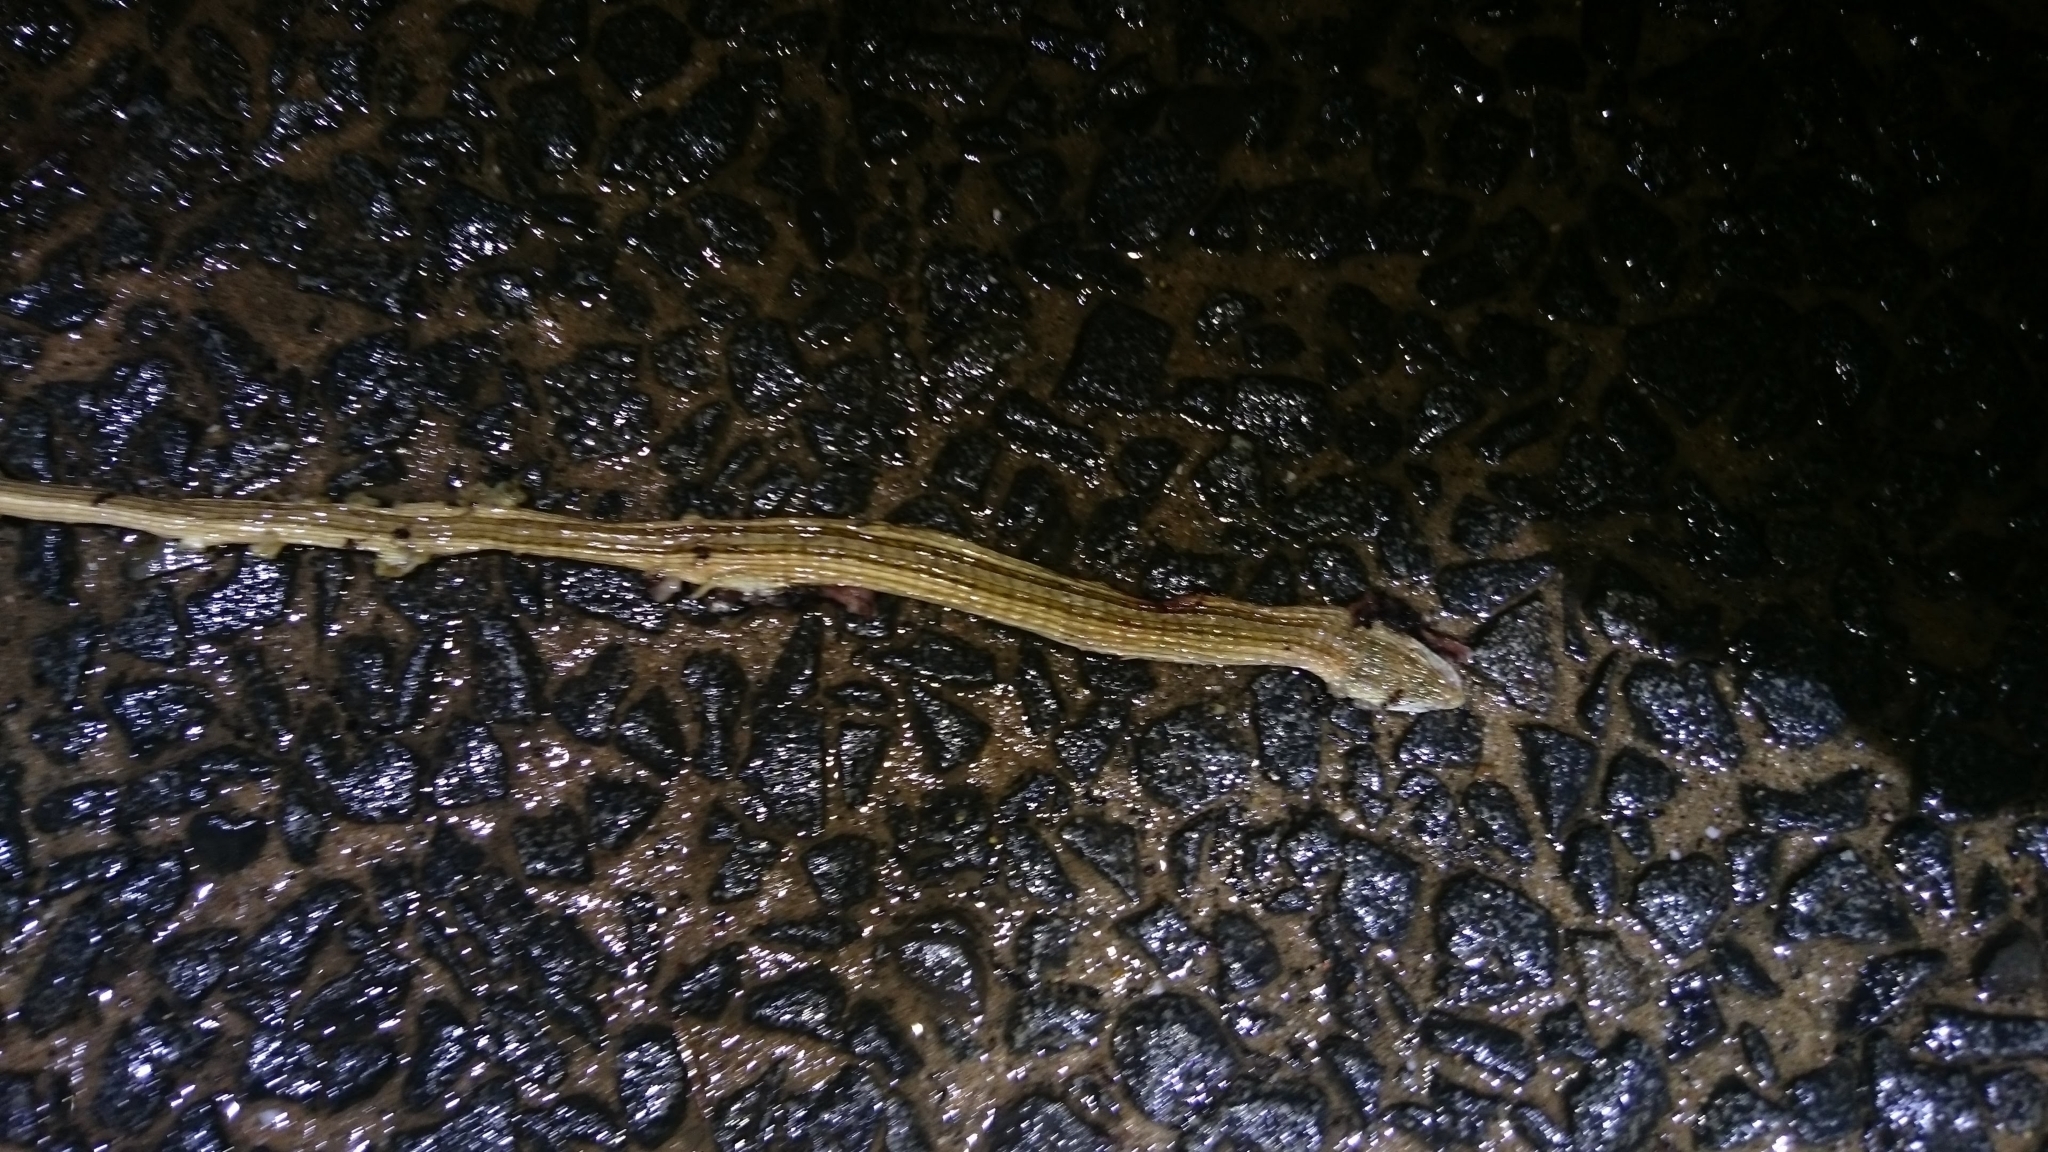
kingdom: Animalia
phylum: Chordata
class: Squamata
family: Cordylidae
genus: Chamaesaura
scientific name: Chamaesaura macrolepis
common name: Large-scaled grass lizard
